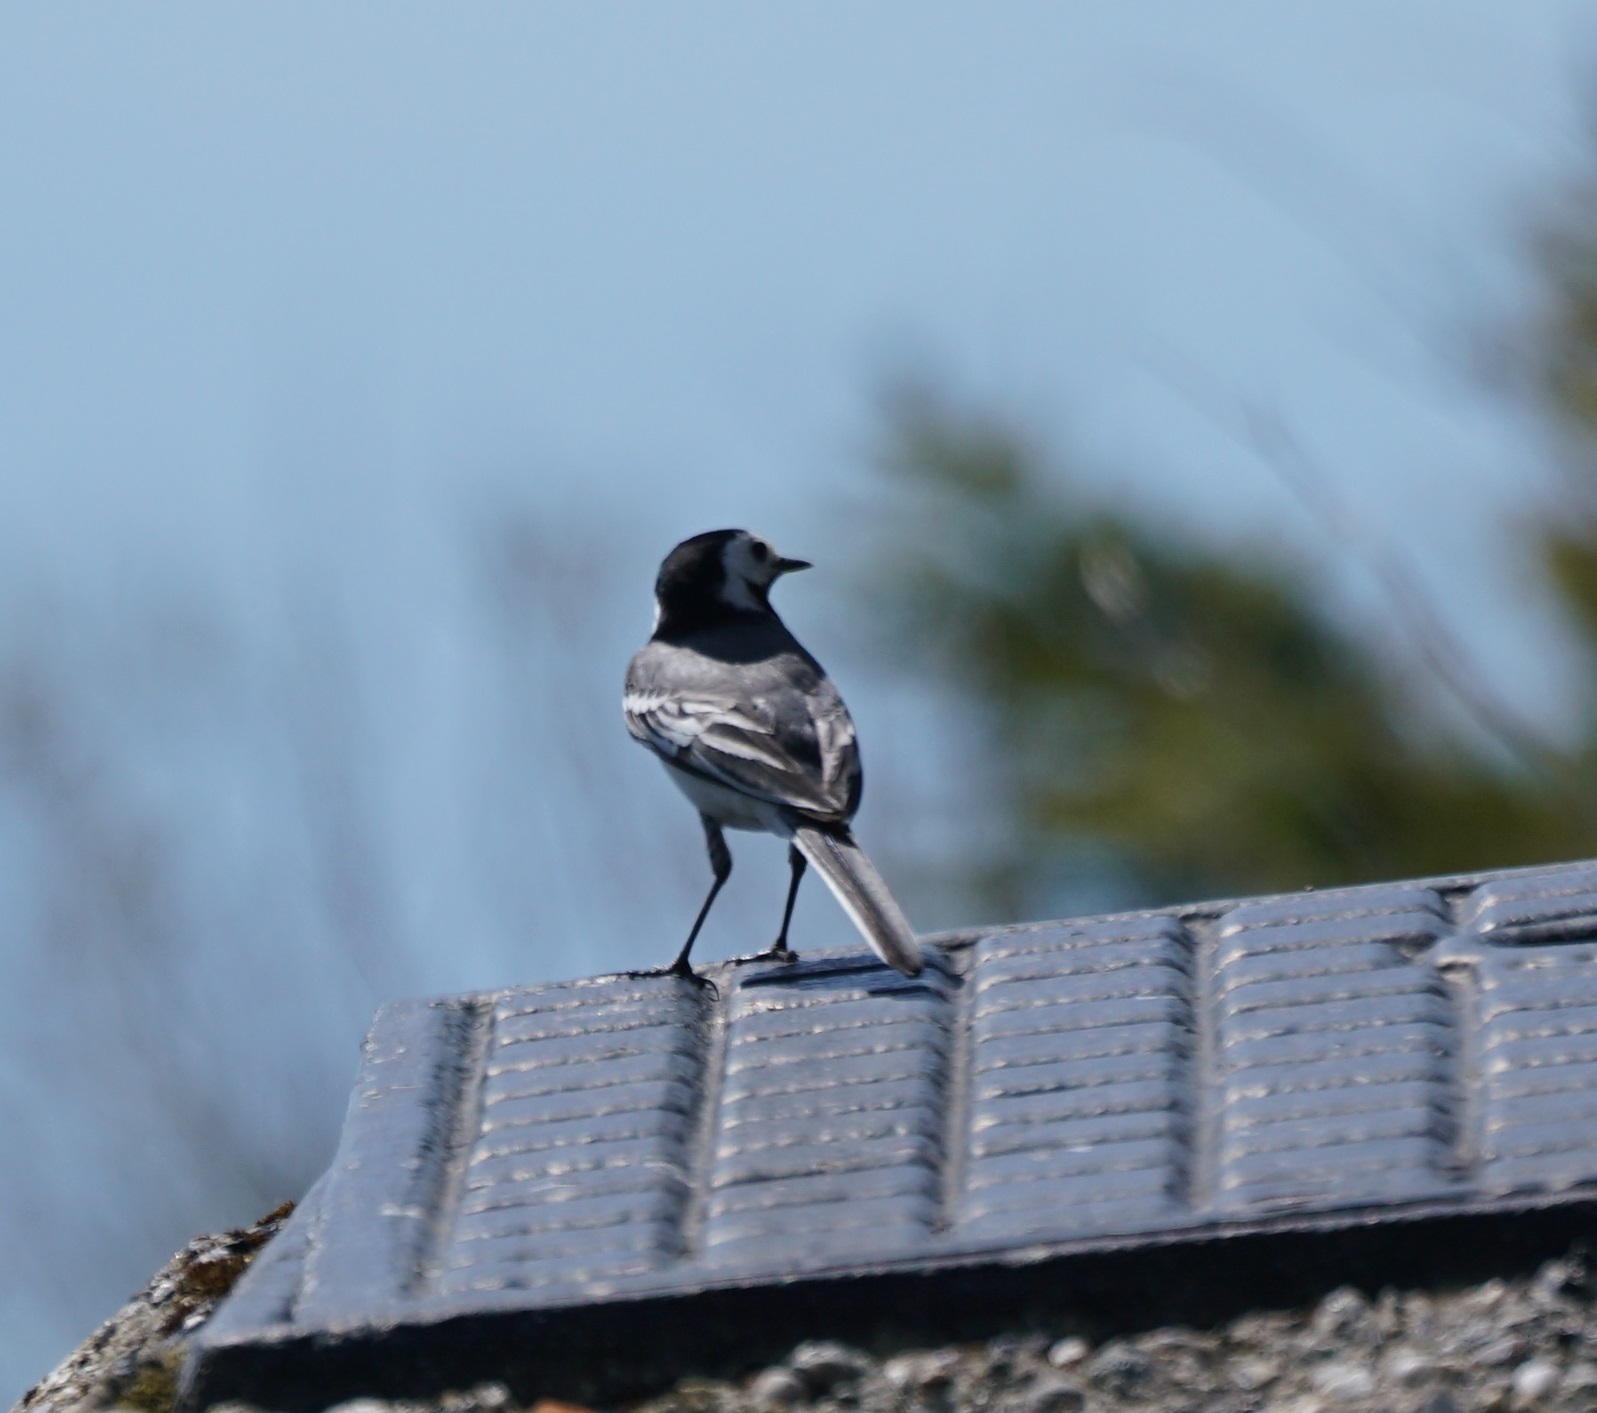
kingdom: Animalia
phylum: Chordata
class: Aves
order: Passeriformes
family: Motacillidae
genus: Motacilla
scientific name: Motacilla alba
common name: White wagtail
